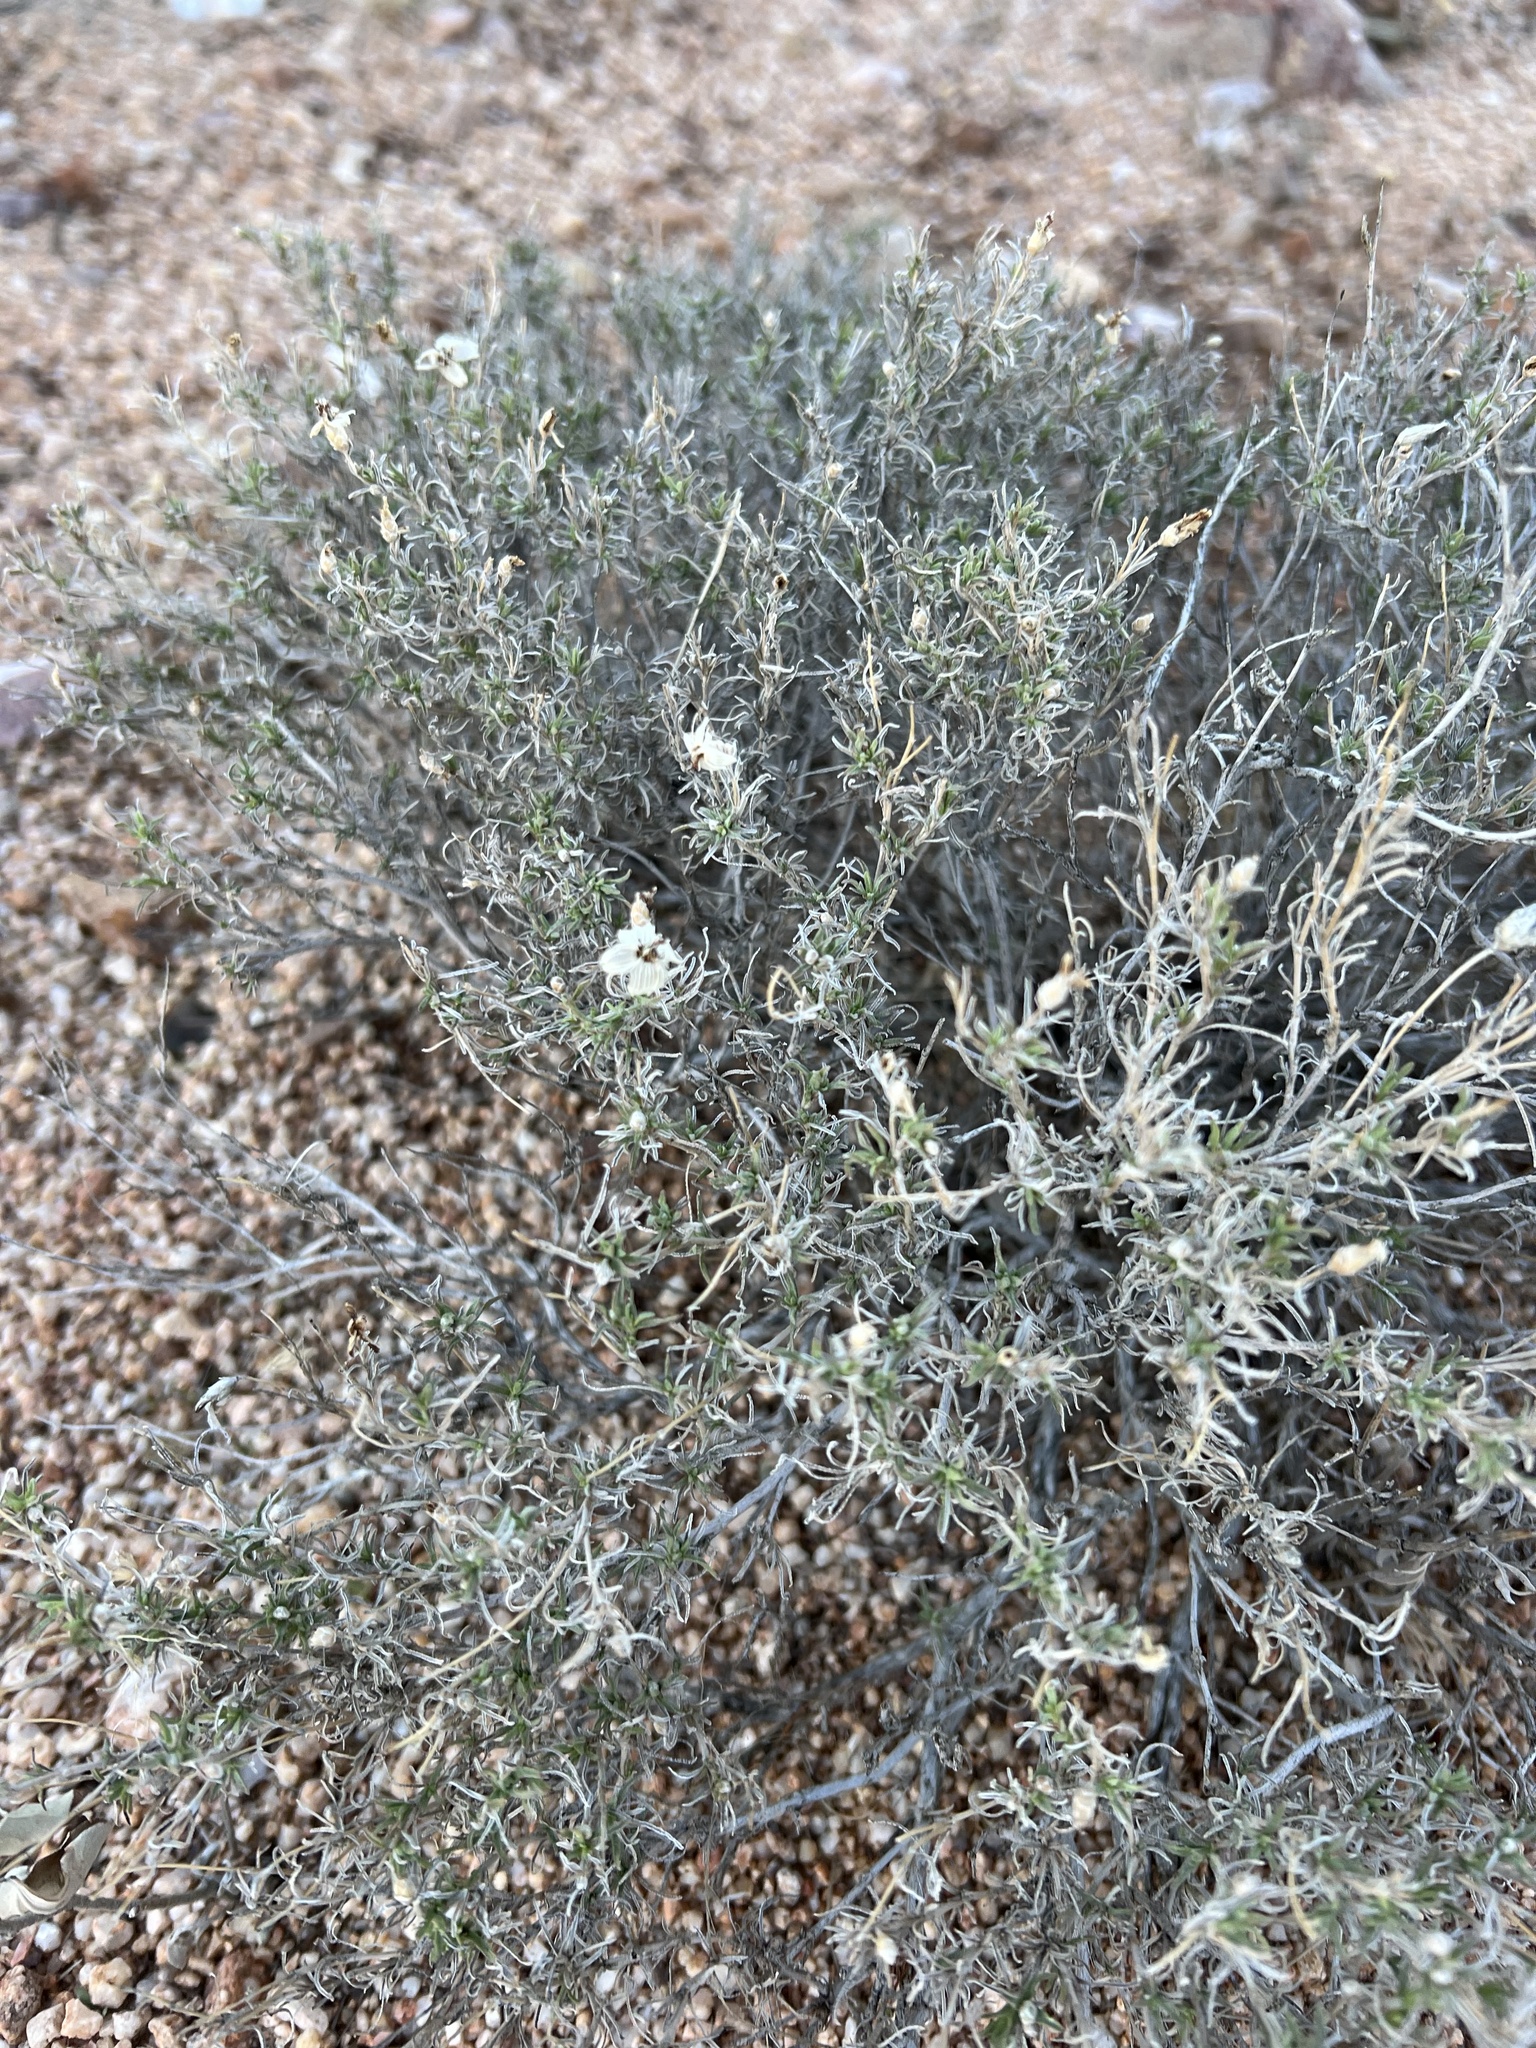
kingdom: Plantae
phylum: Tracheophyta
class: Magnoliopsida
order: Asterales
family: Asteraceae
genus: Zinnia
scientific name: Zinnia acerosa
